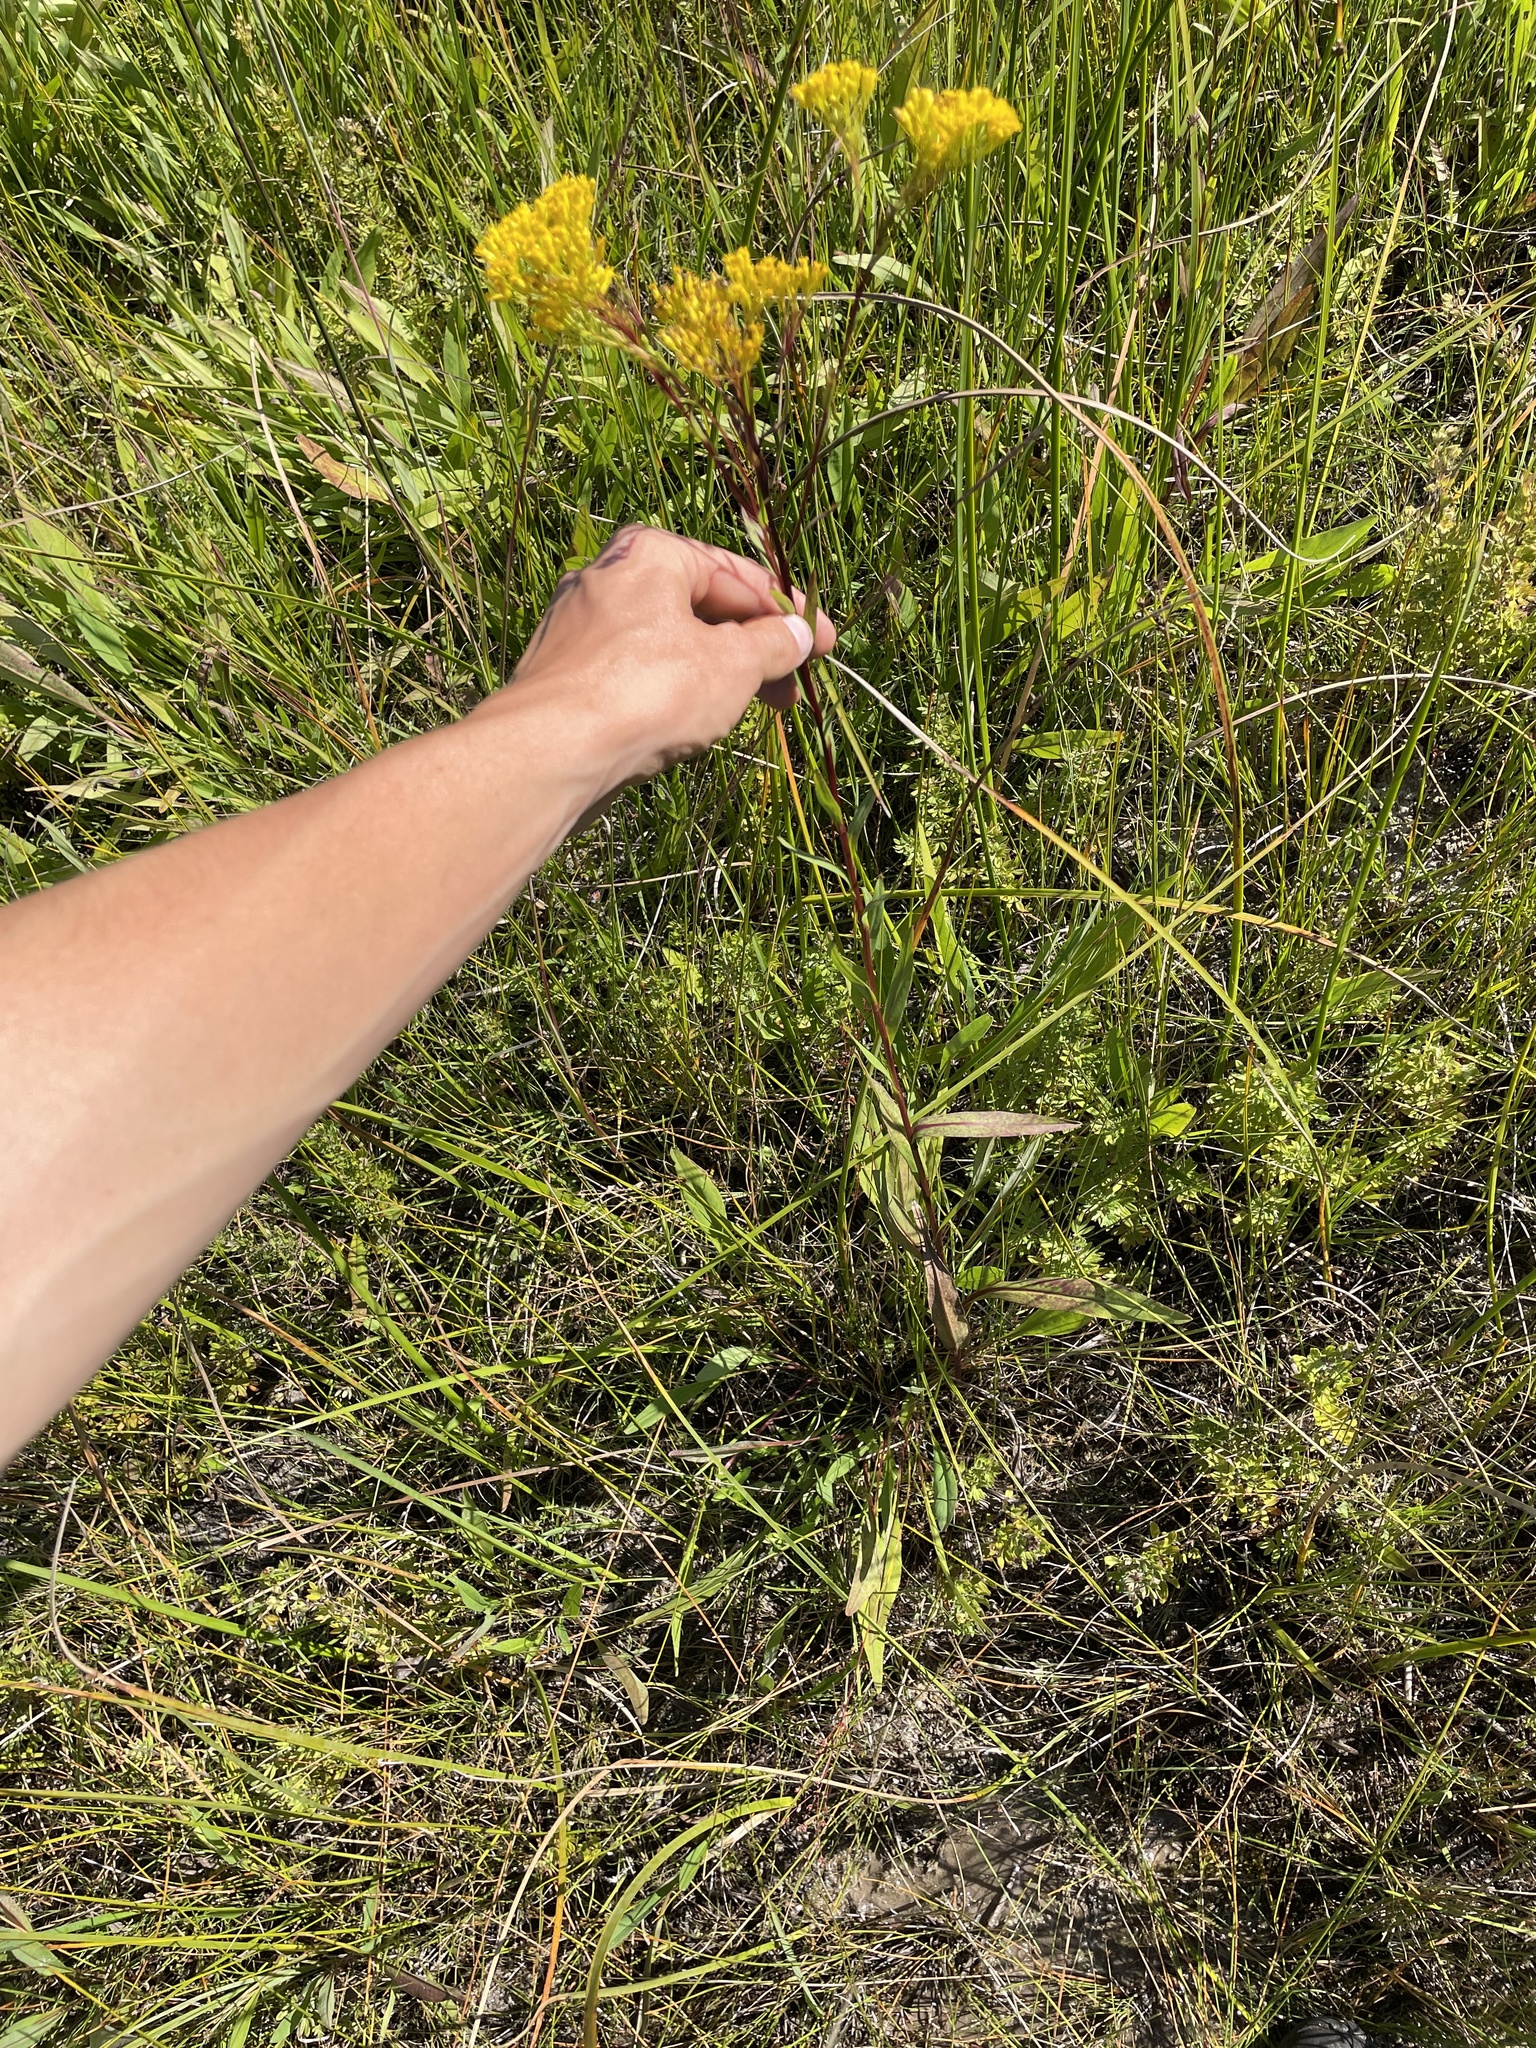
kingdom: Plantae
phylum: Tracheophyta
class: Magnoliopsida
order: Asterales
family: Asteraceae
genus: Solidago
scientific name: Solidago ohioensis
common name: Ohio goldenrod
